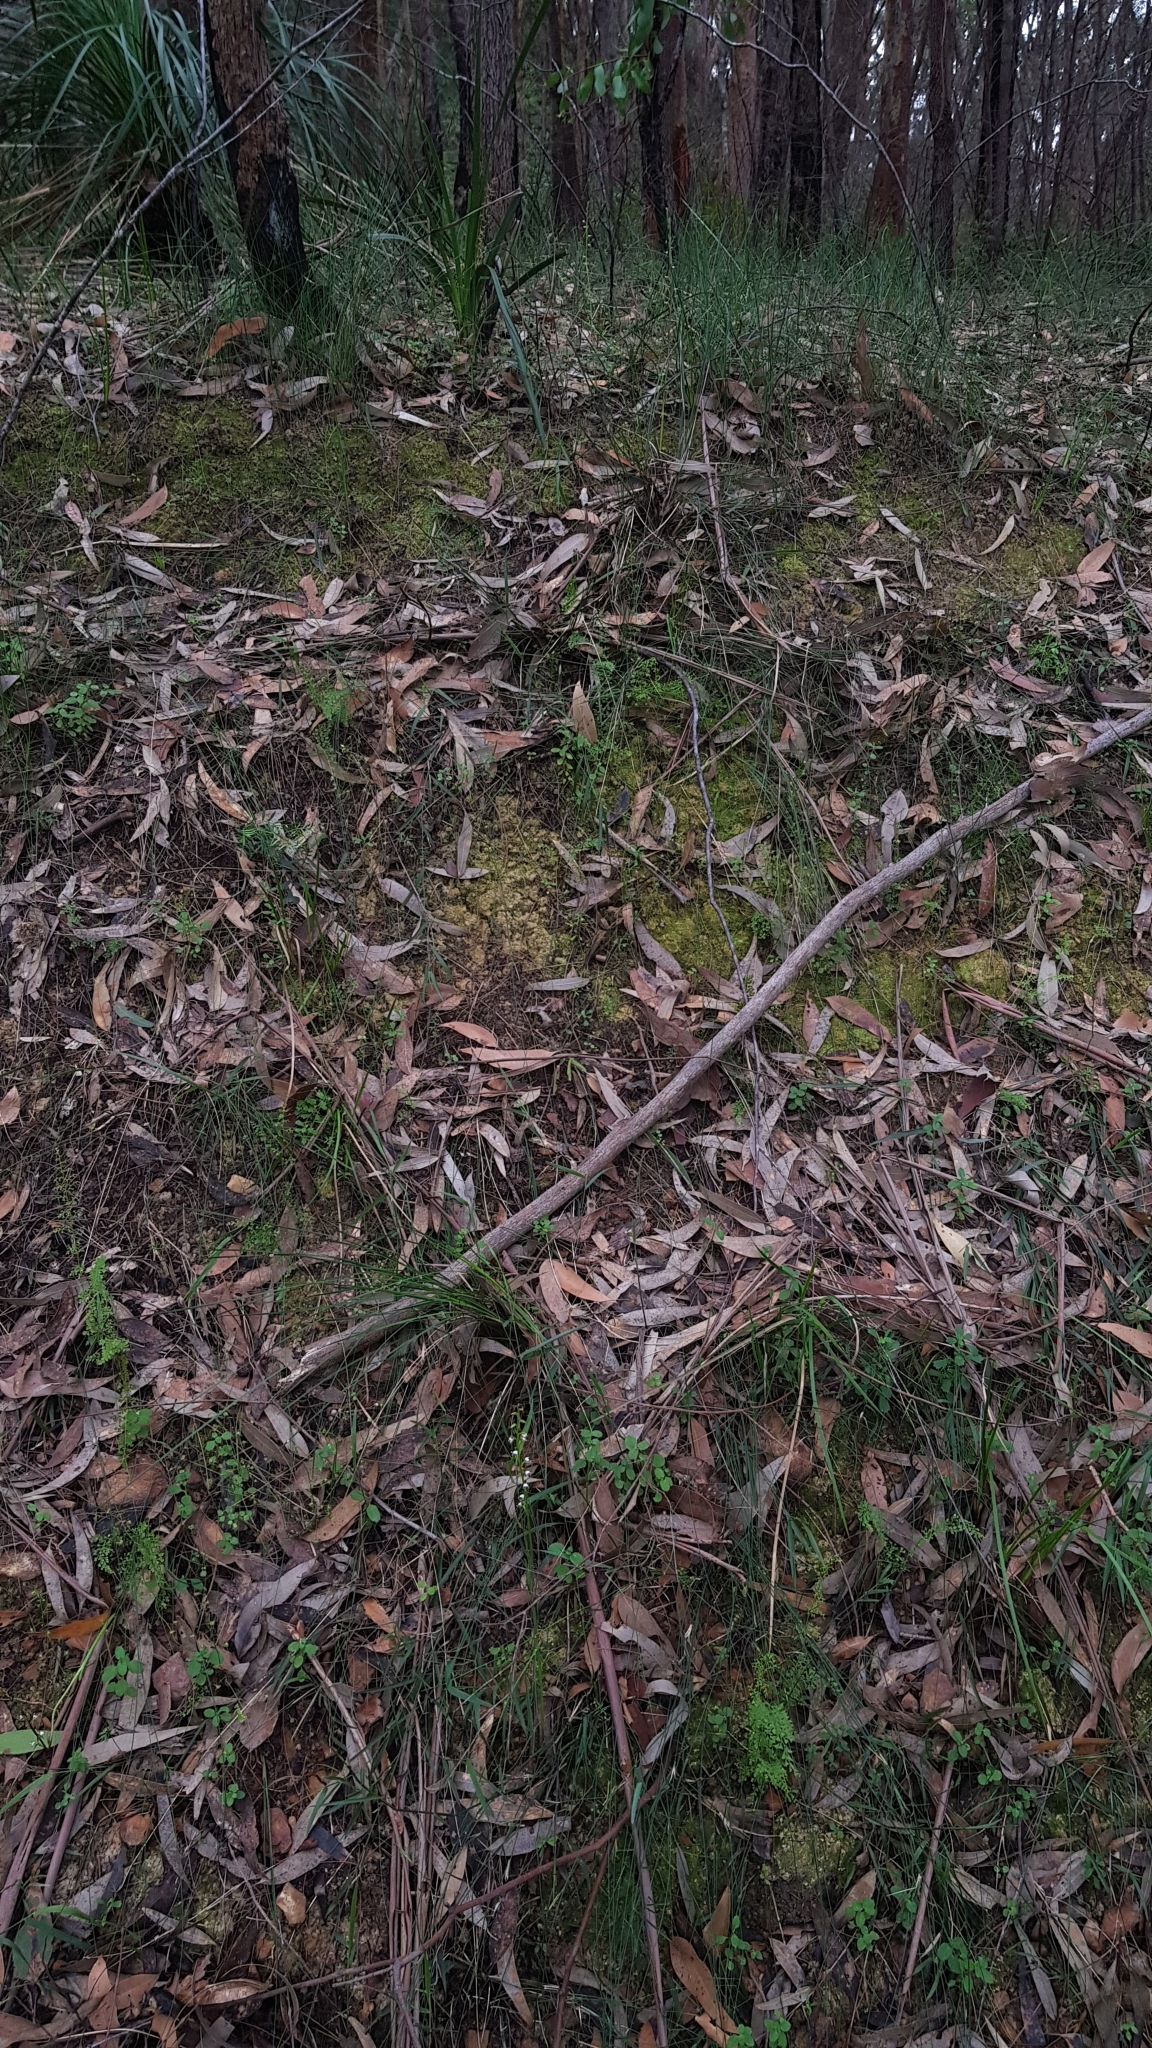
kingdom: Plantae
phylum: Tracheophyta
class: Liliopsida
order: Asparagales
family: Orchidaceae
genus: Prasophyllum
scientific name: Prasophyllum brevilabre
